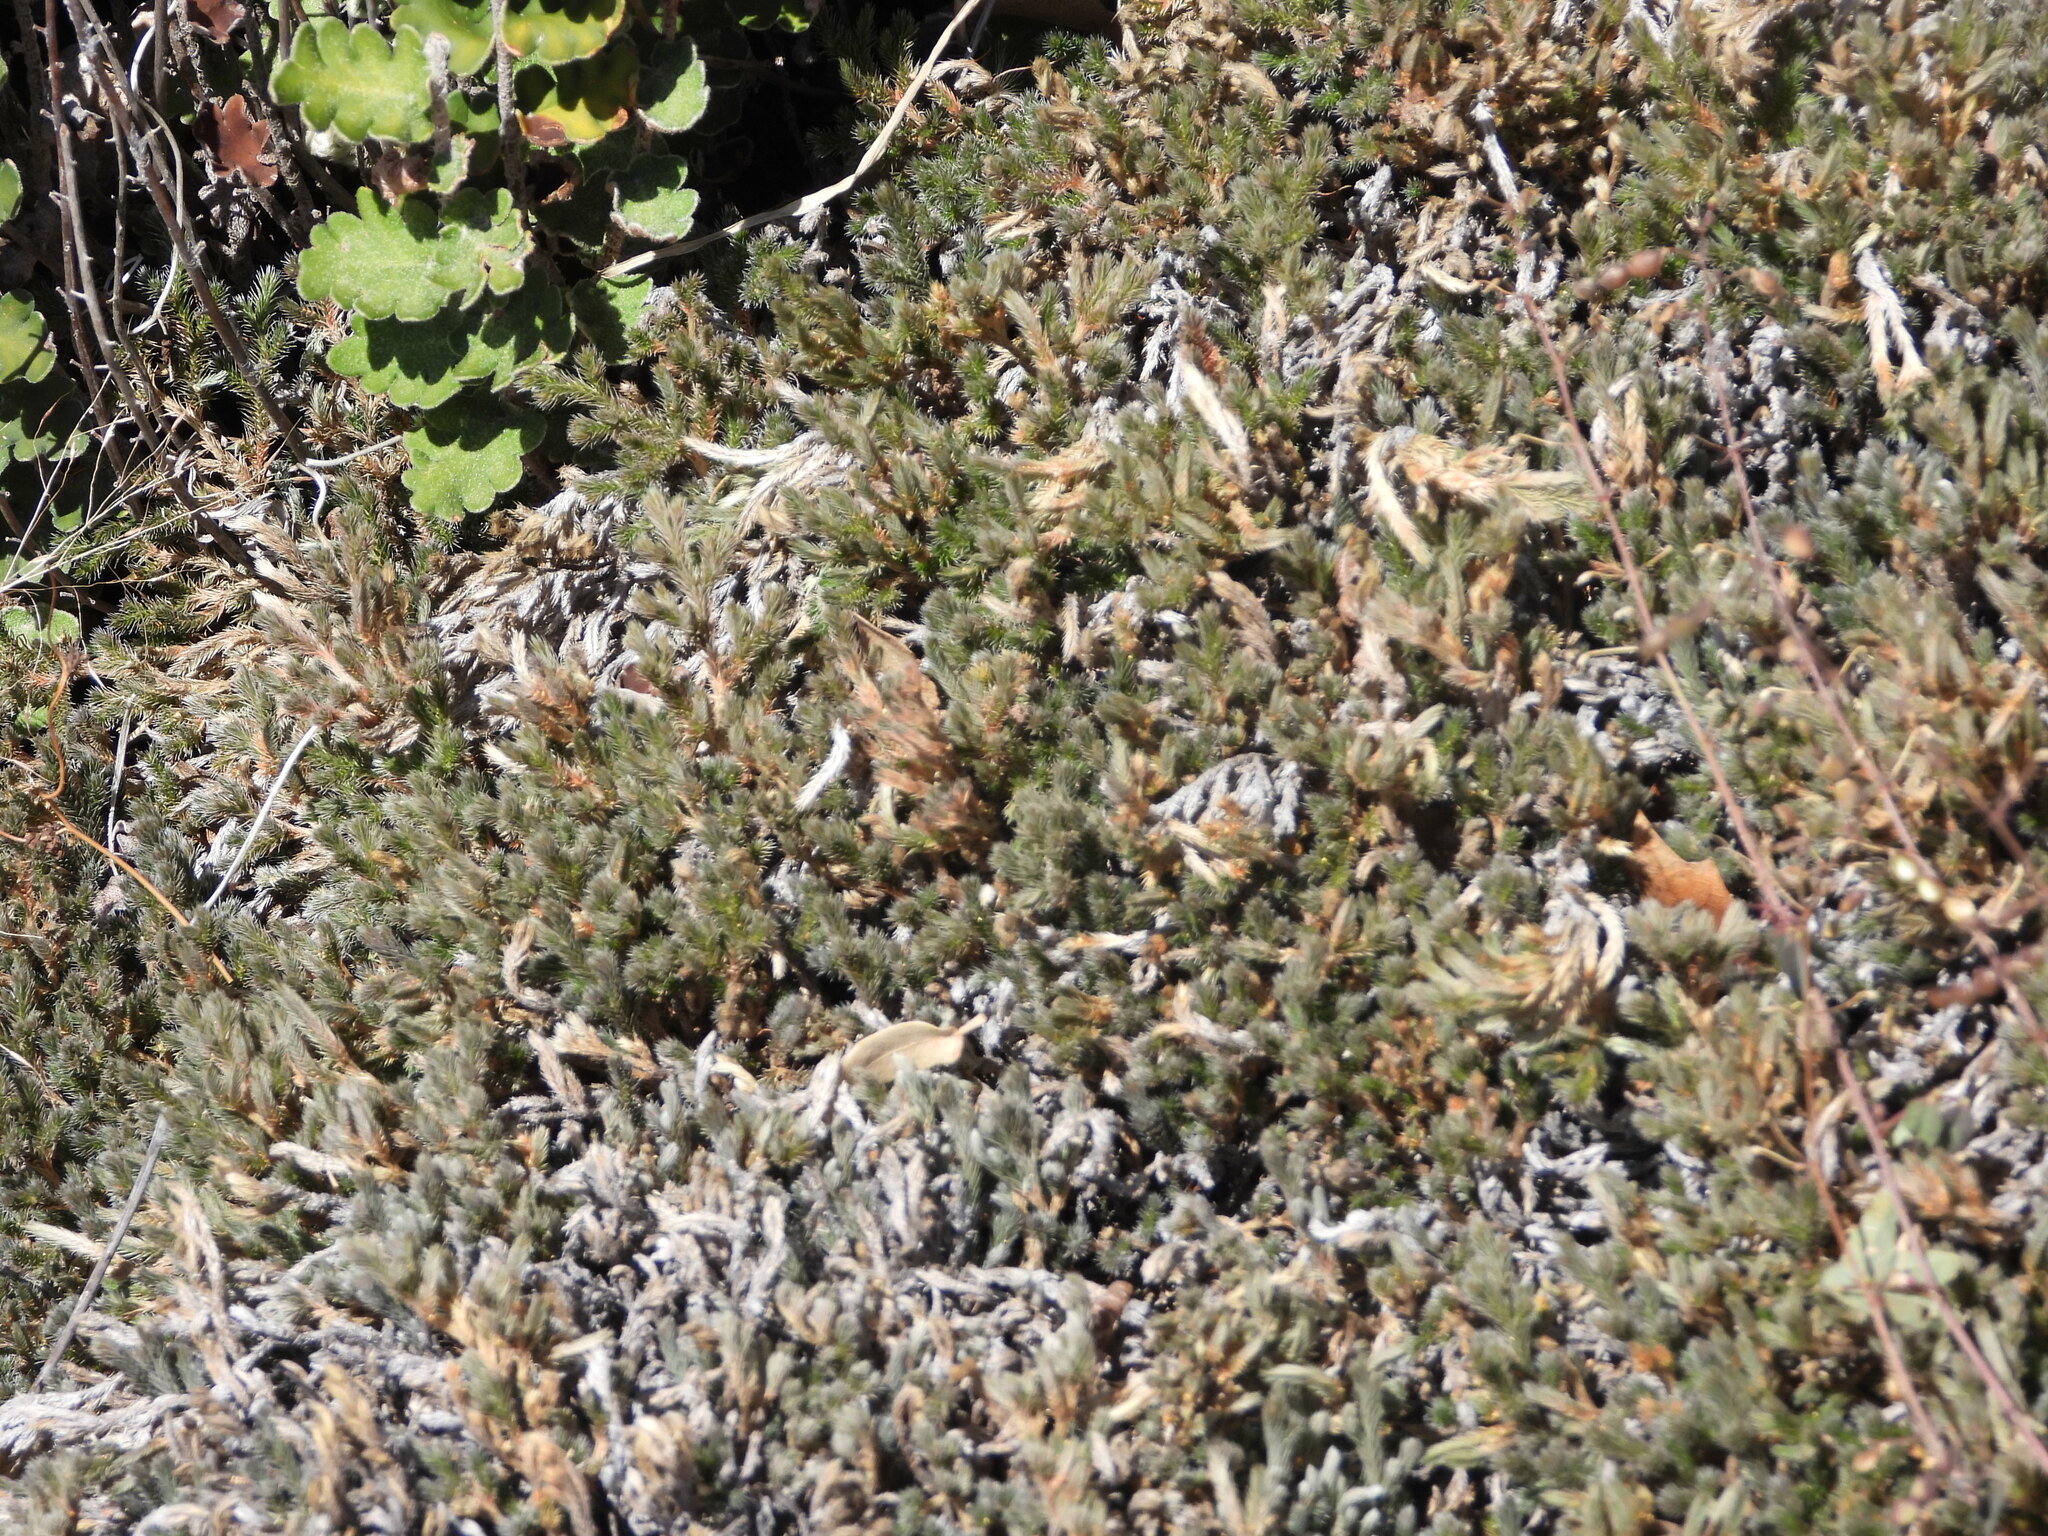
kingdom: Plantae
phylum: Tracheophyta
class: Lycopodiopsida
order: Selaginellales
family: Selaginellaceae
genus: Selaginella
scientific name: Selaginella rupincola
